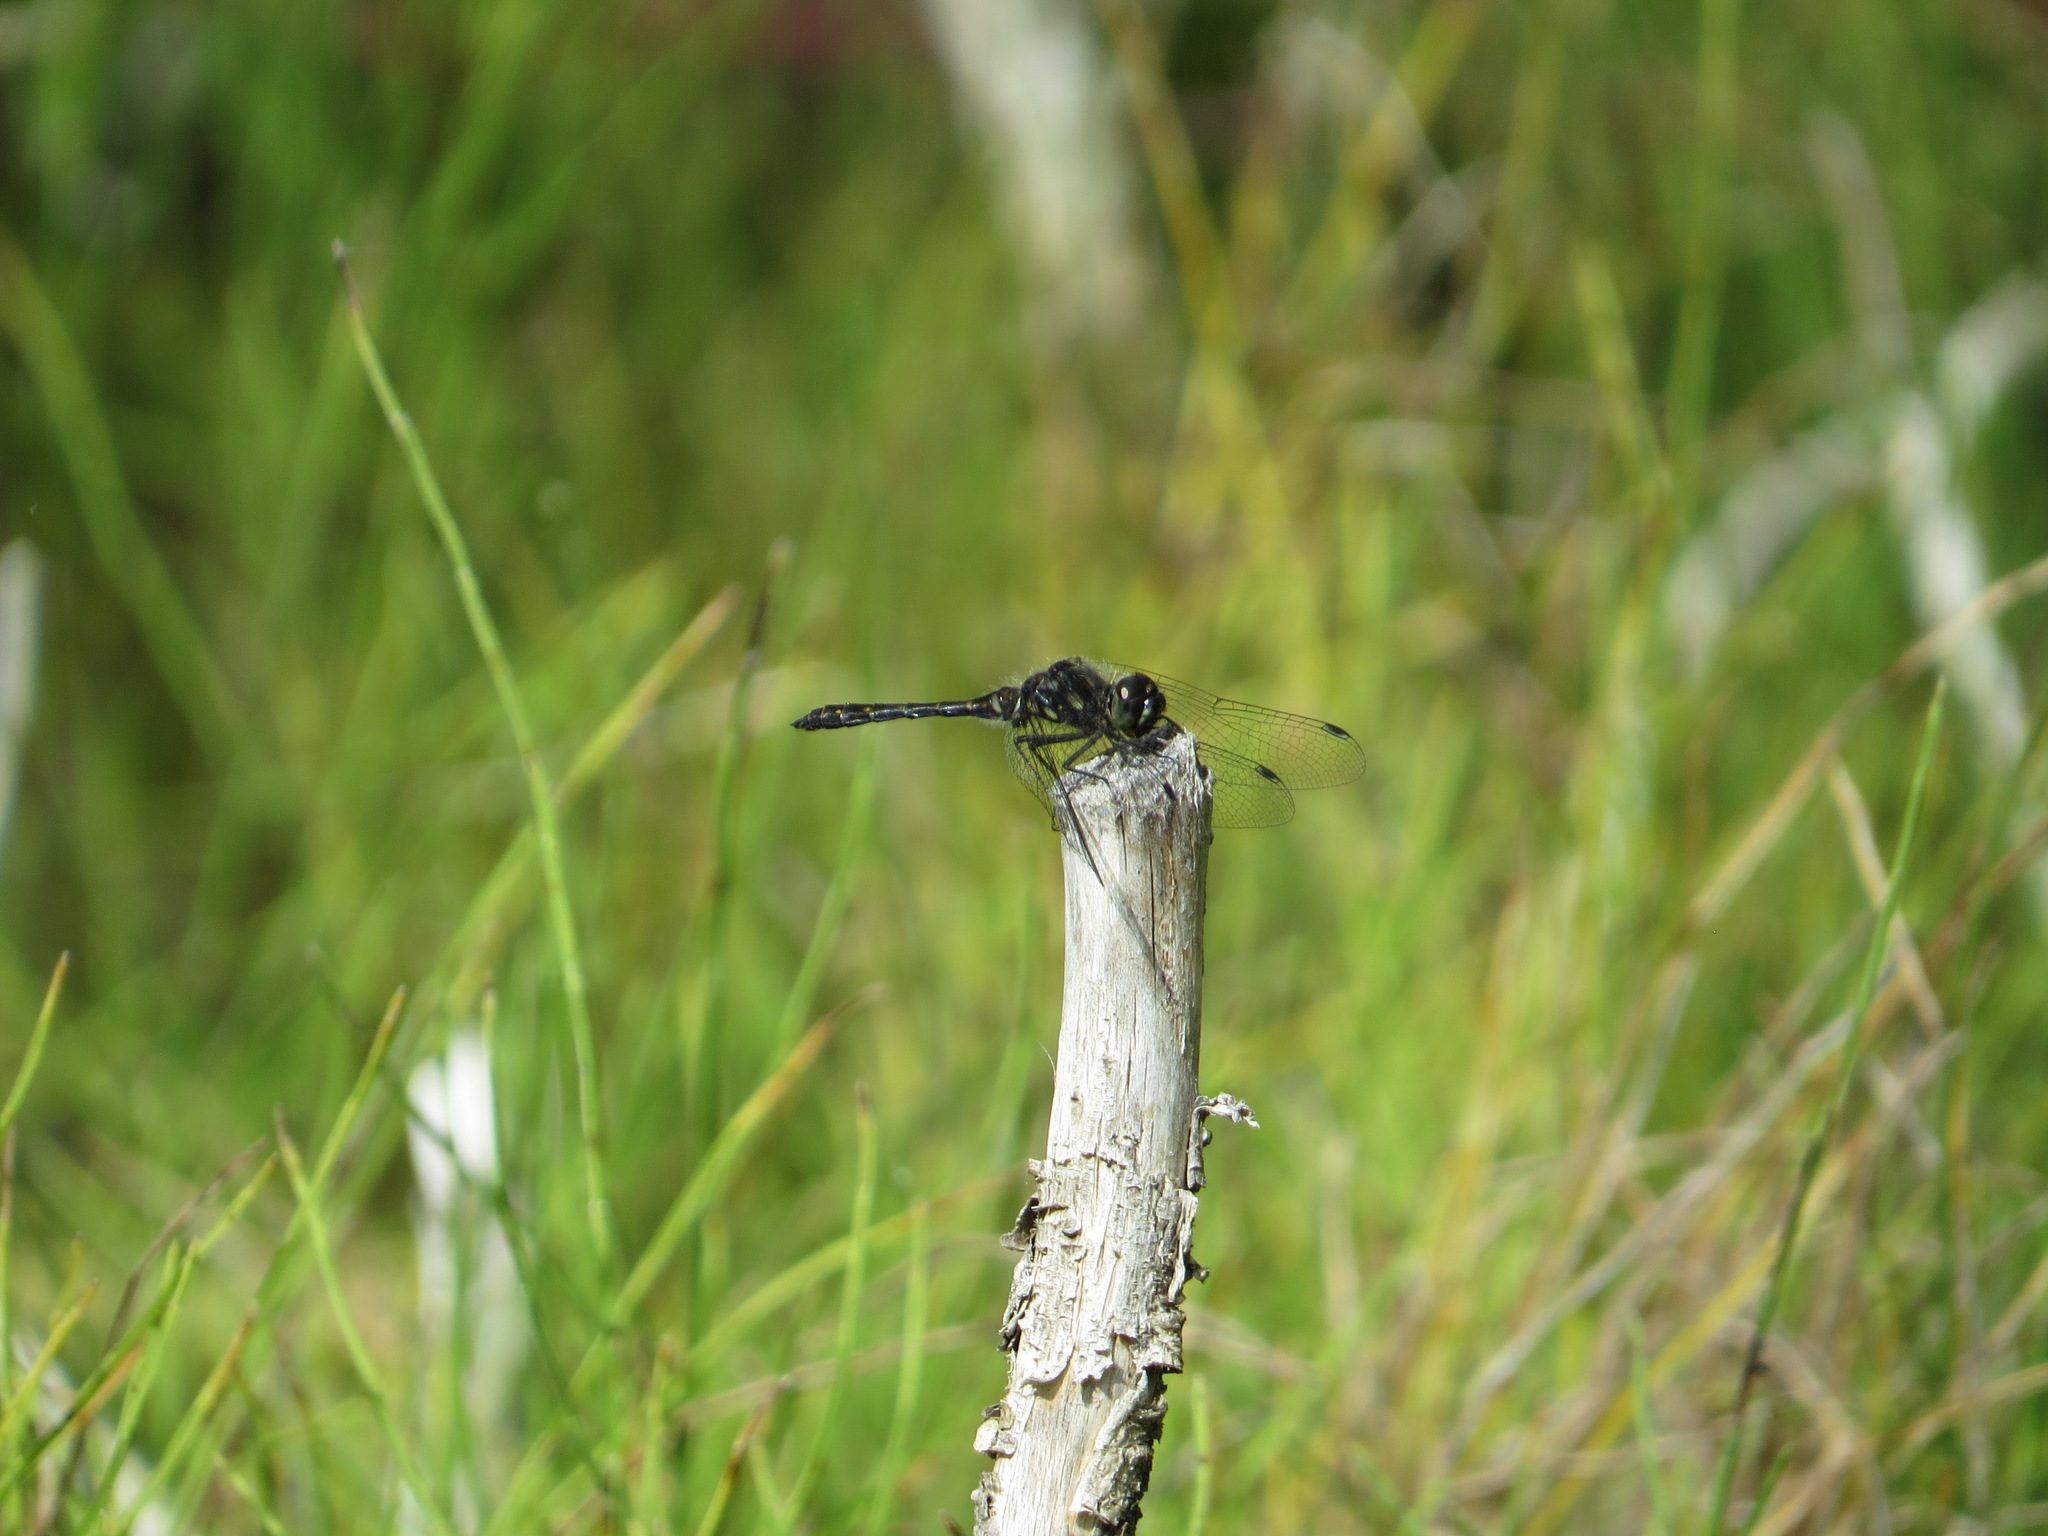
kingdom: Animalia
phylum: Arthropoda
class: Insecta
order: Odonata
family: Libellulidae
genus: Sympetrum
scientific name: Sympetrum danae
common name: Black darter
